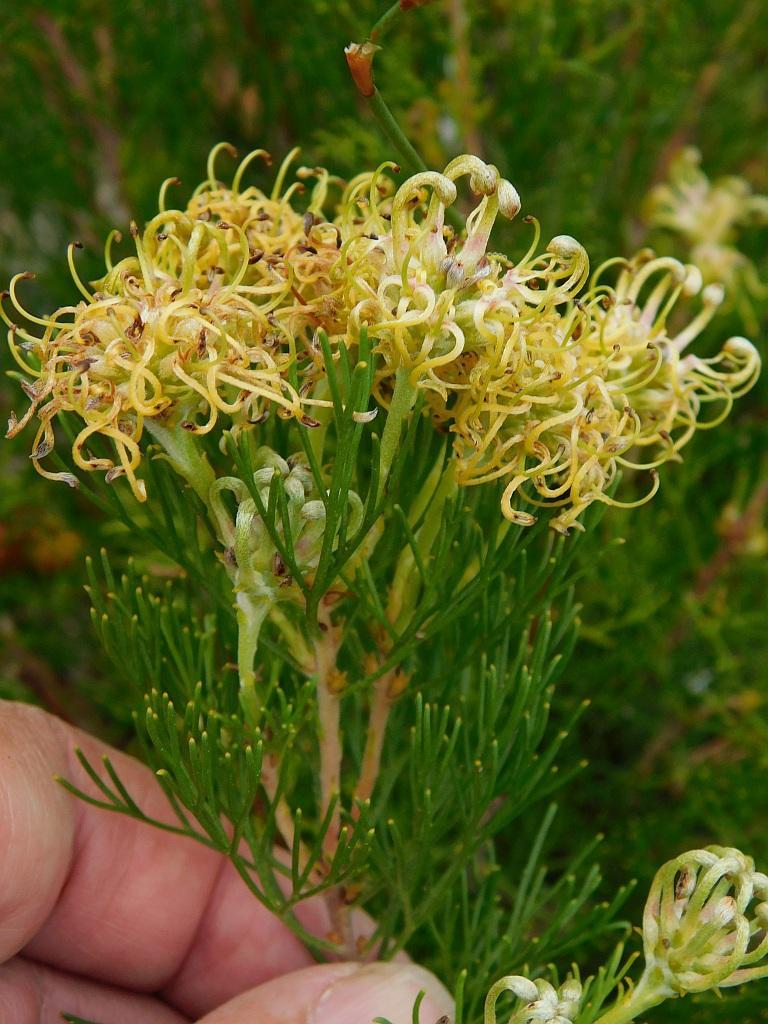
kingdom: Plantae
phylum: Tracheophyta
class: Magnoliopsida
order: Proteales
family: Proteaceae
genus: Serruria
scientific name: Serruria
